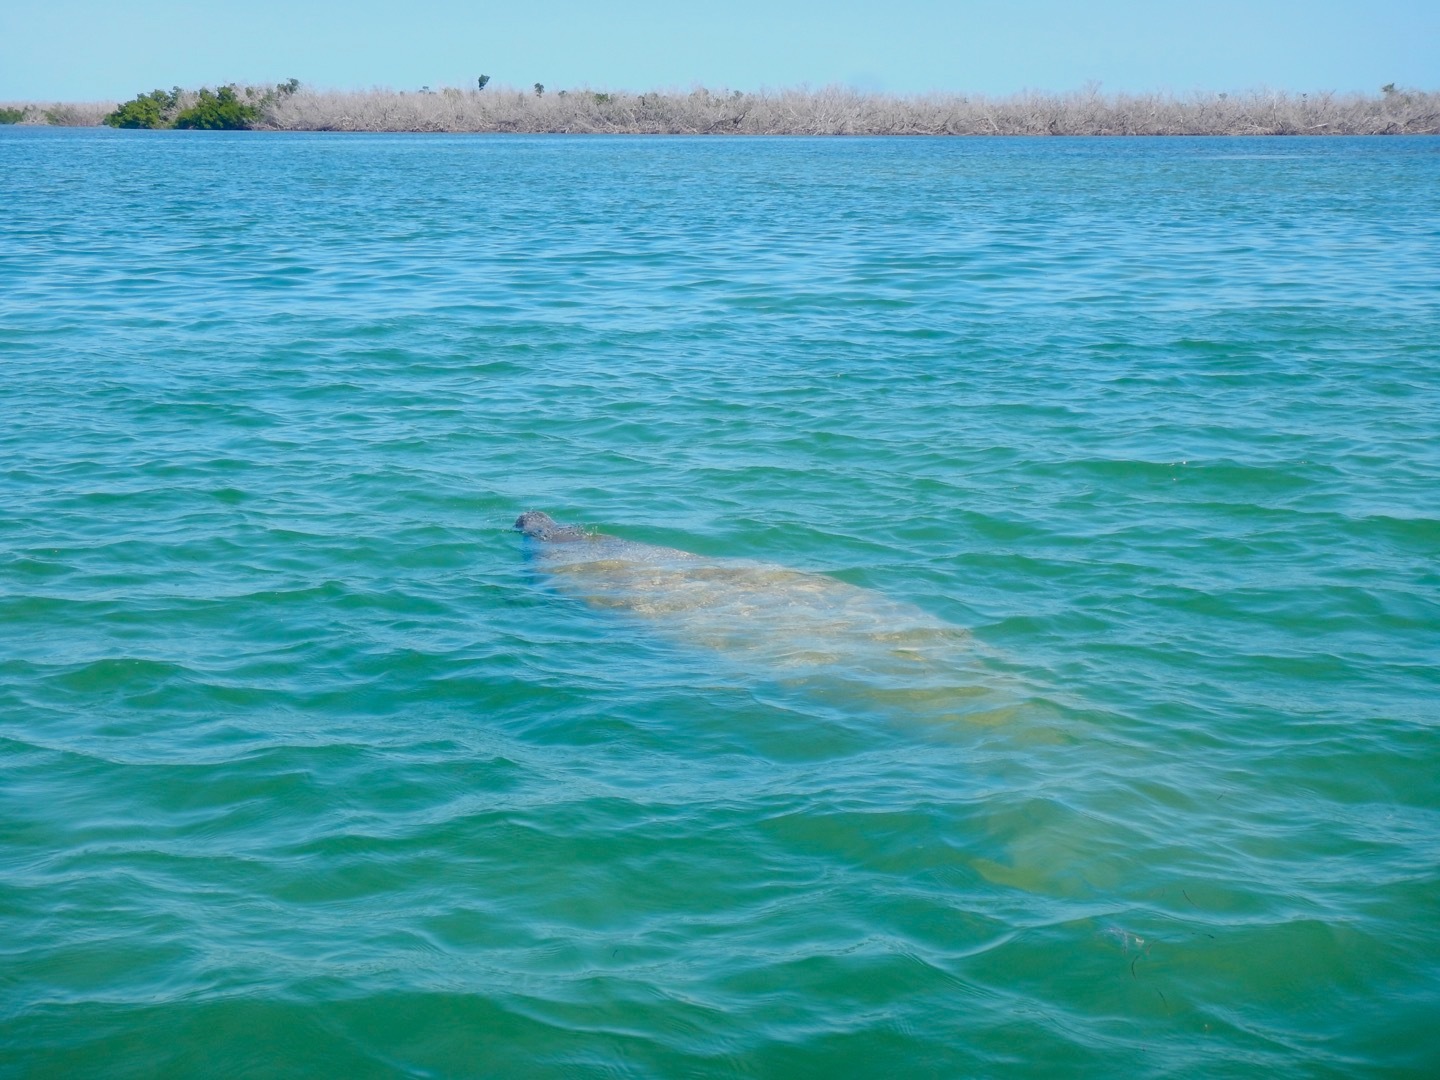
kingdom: Animalia
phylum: Chordata
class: Mammalia
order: Sirenia
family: Trichechidae
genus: Trichechus
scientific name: Trichechus manatus
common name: West indian manatee
